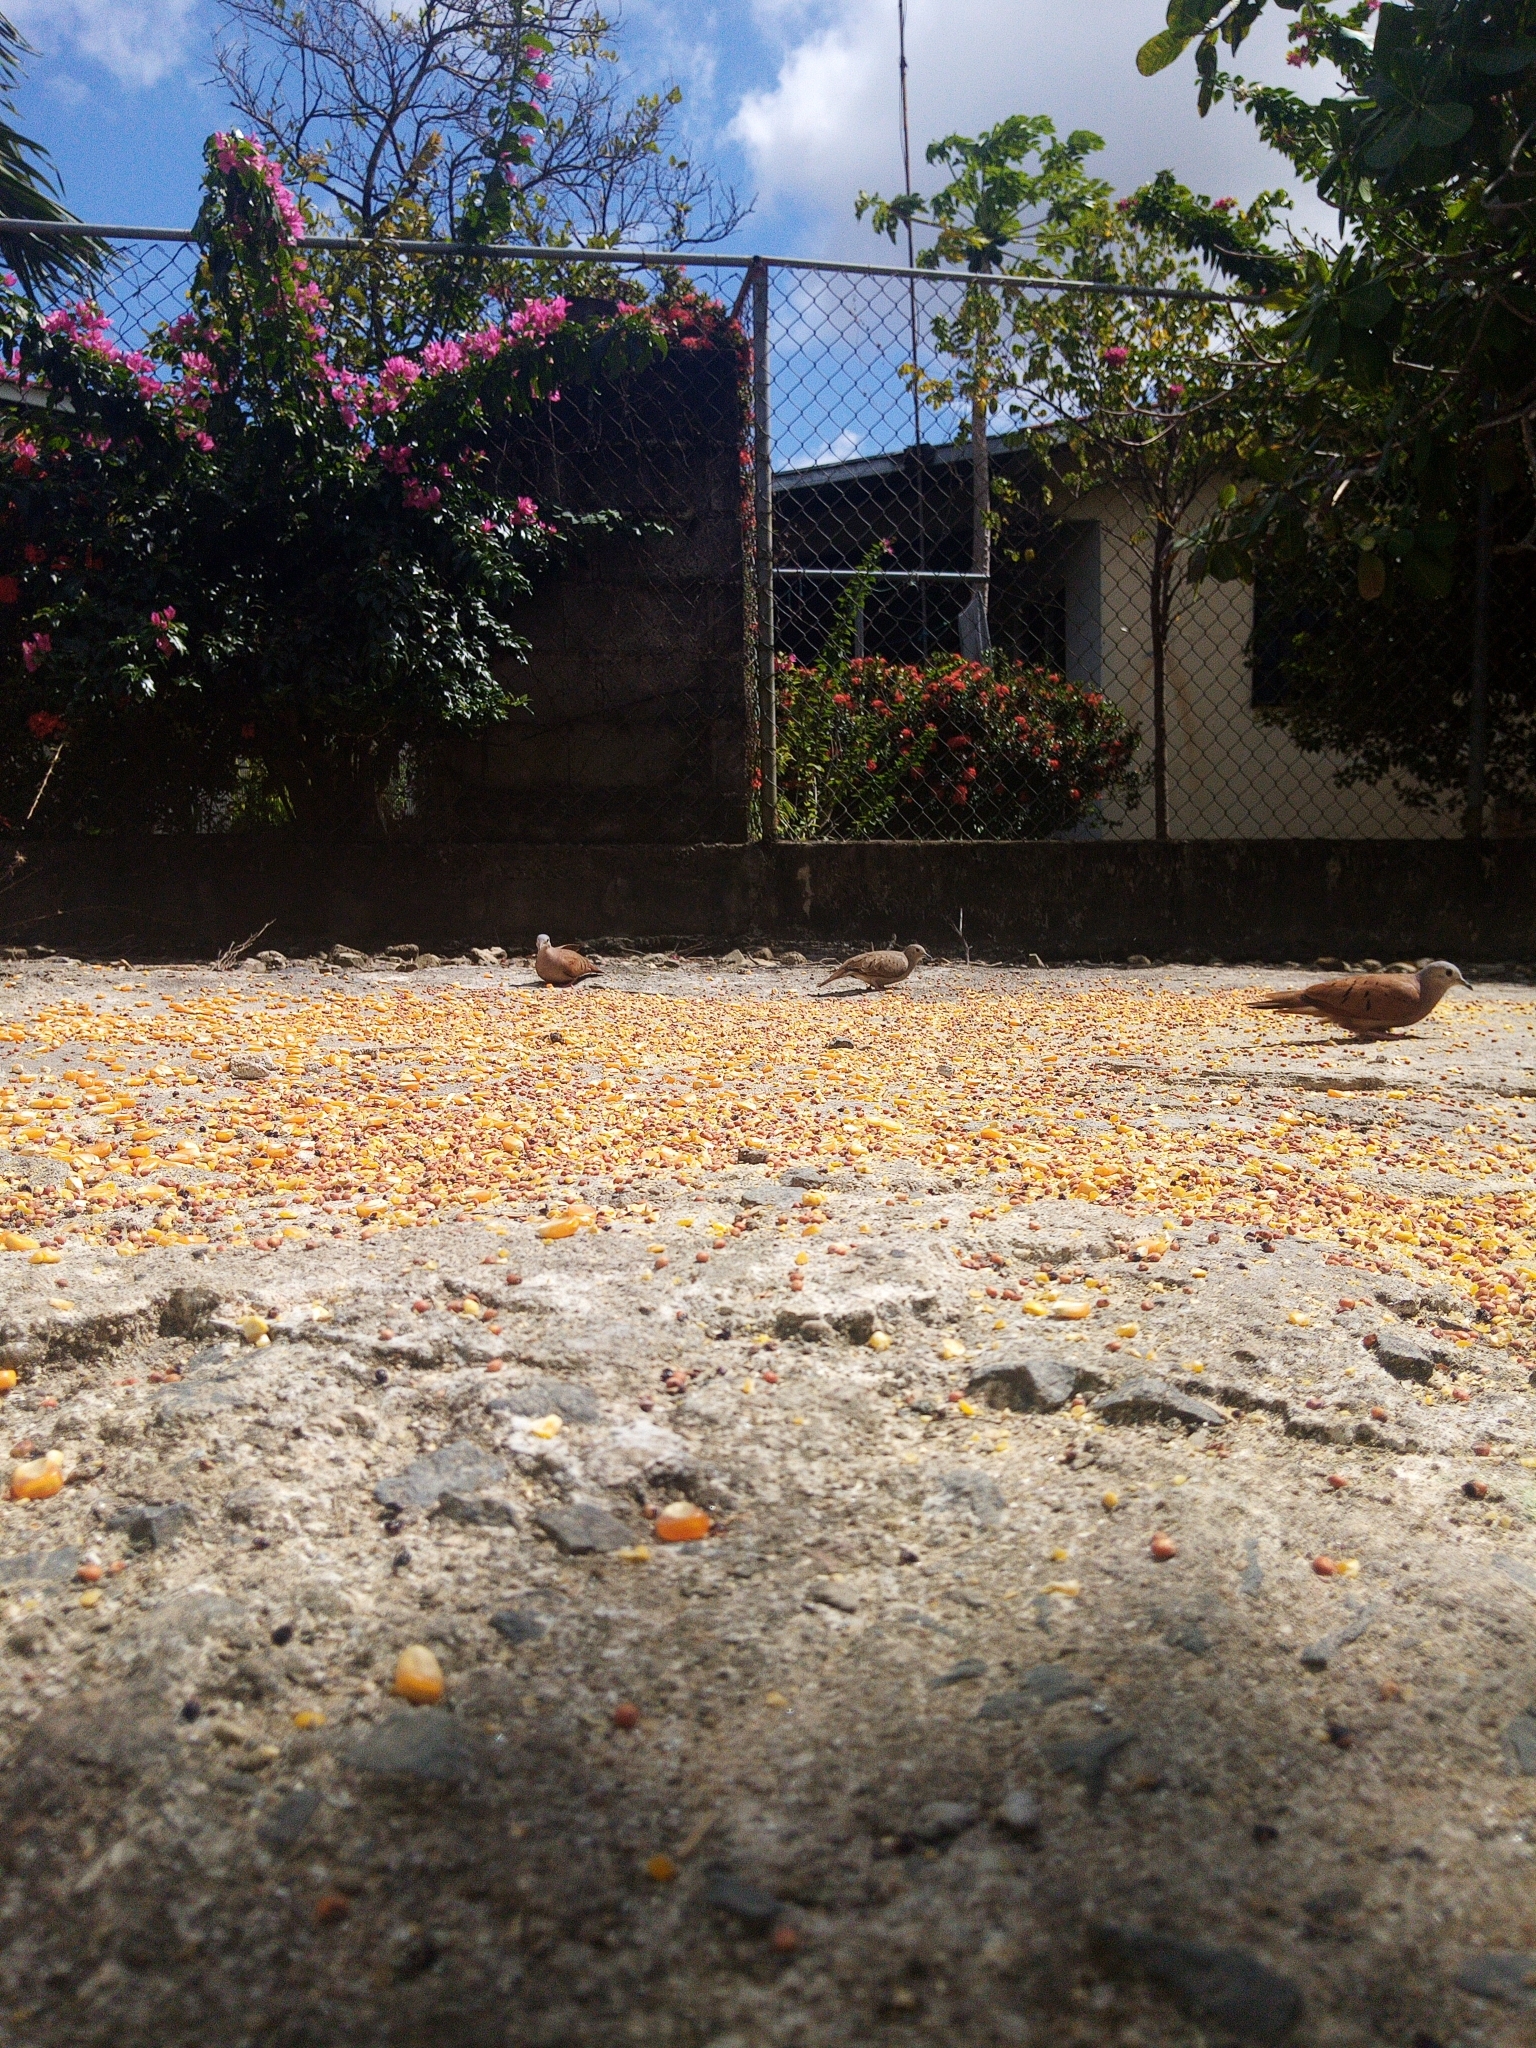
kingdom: Animalia
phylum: Chordata
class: Aves
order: Columbiformes
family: Columbidae
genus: Columbina
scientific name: Columbina talpacoti
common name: Ruddy ground dove
